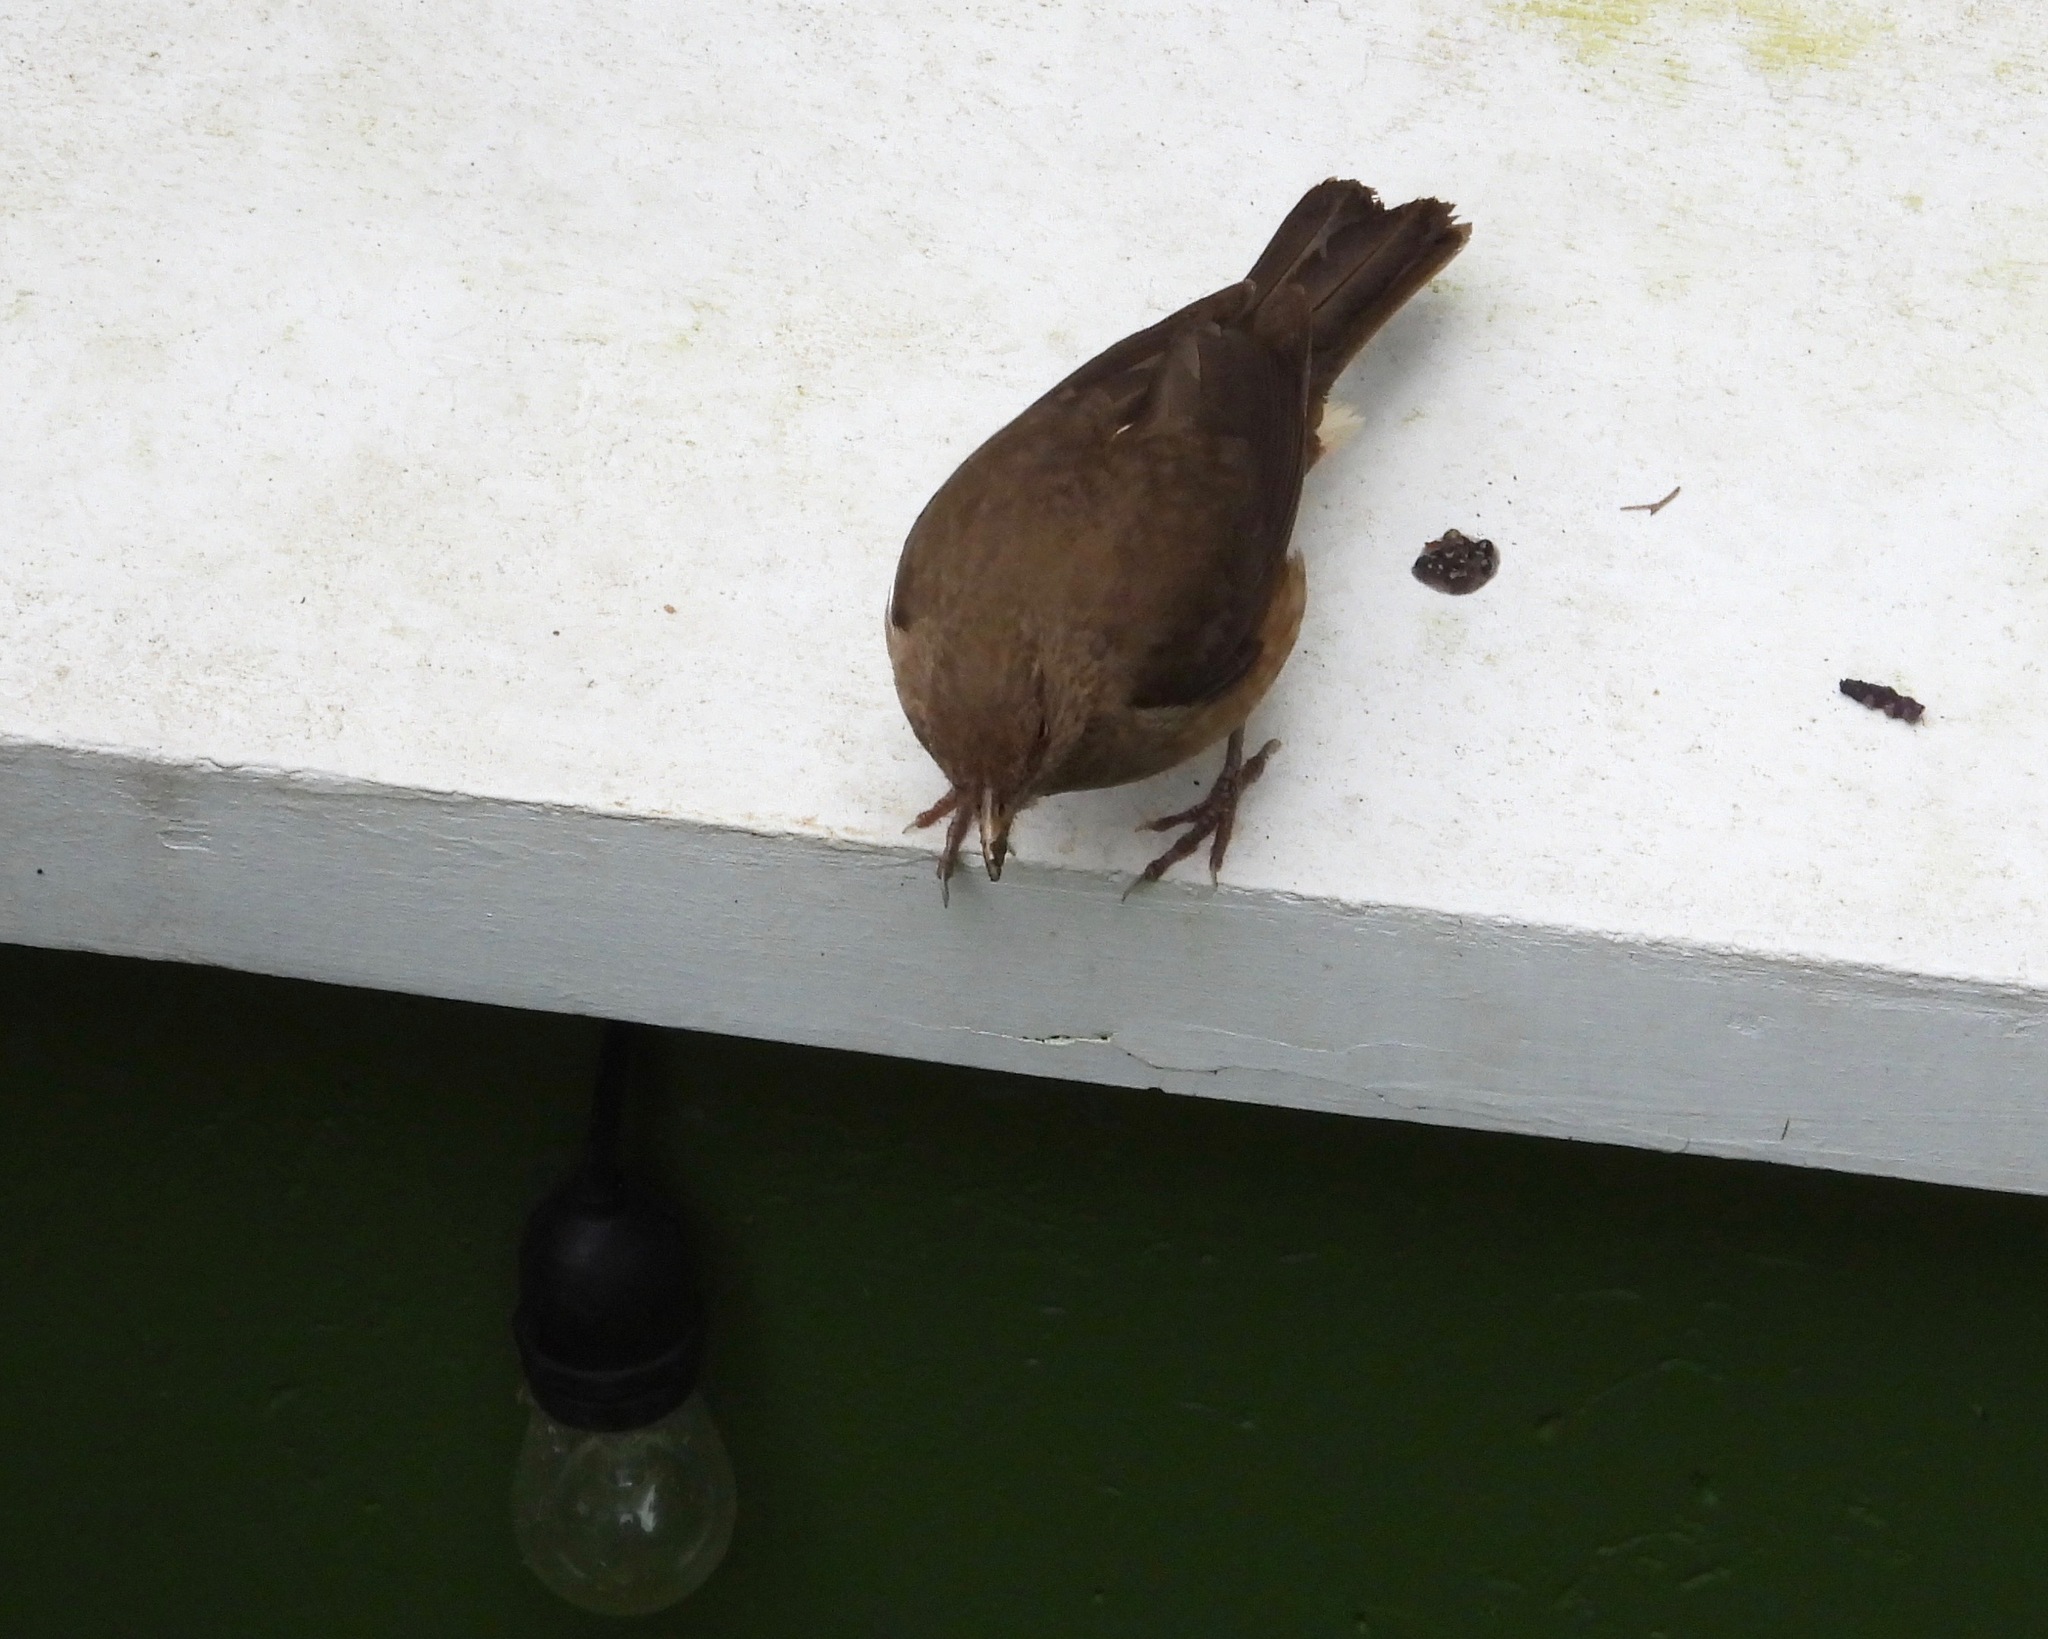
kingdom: Animalia
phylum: Chordata
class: Aves
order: Passeriformes
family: Turdidae
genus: Turdus
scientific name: Turdus grayi
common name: Clay-colored thrush
